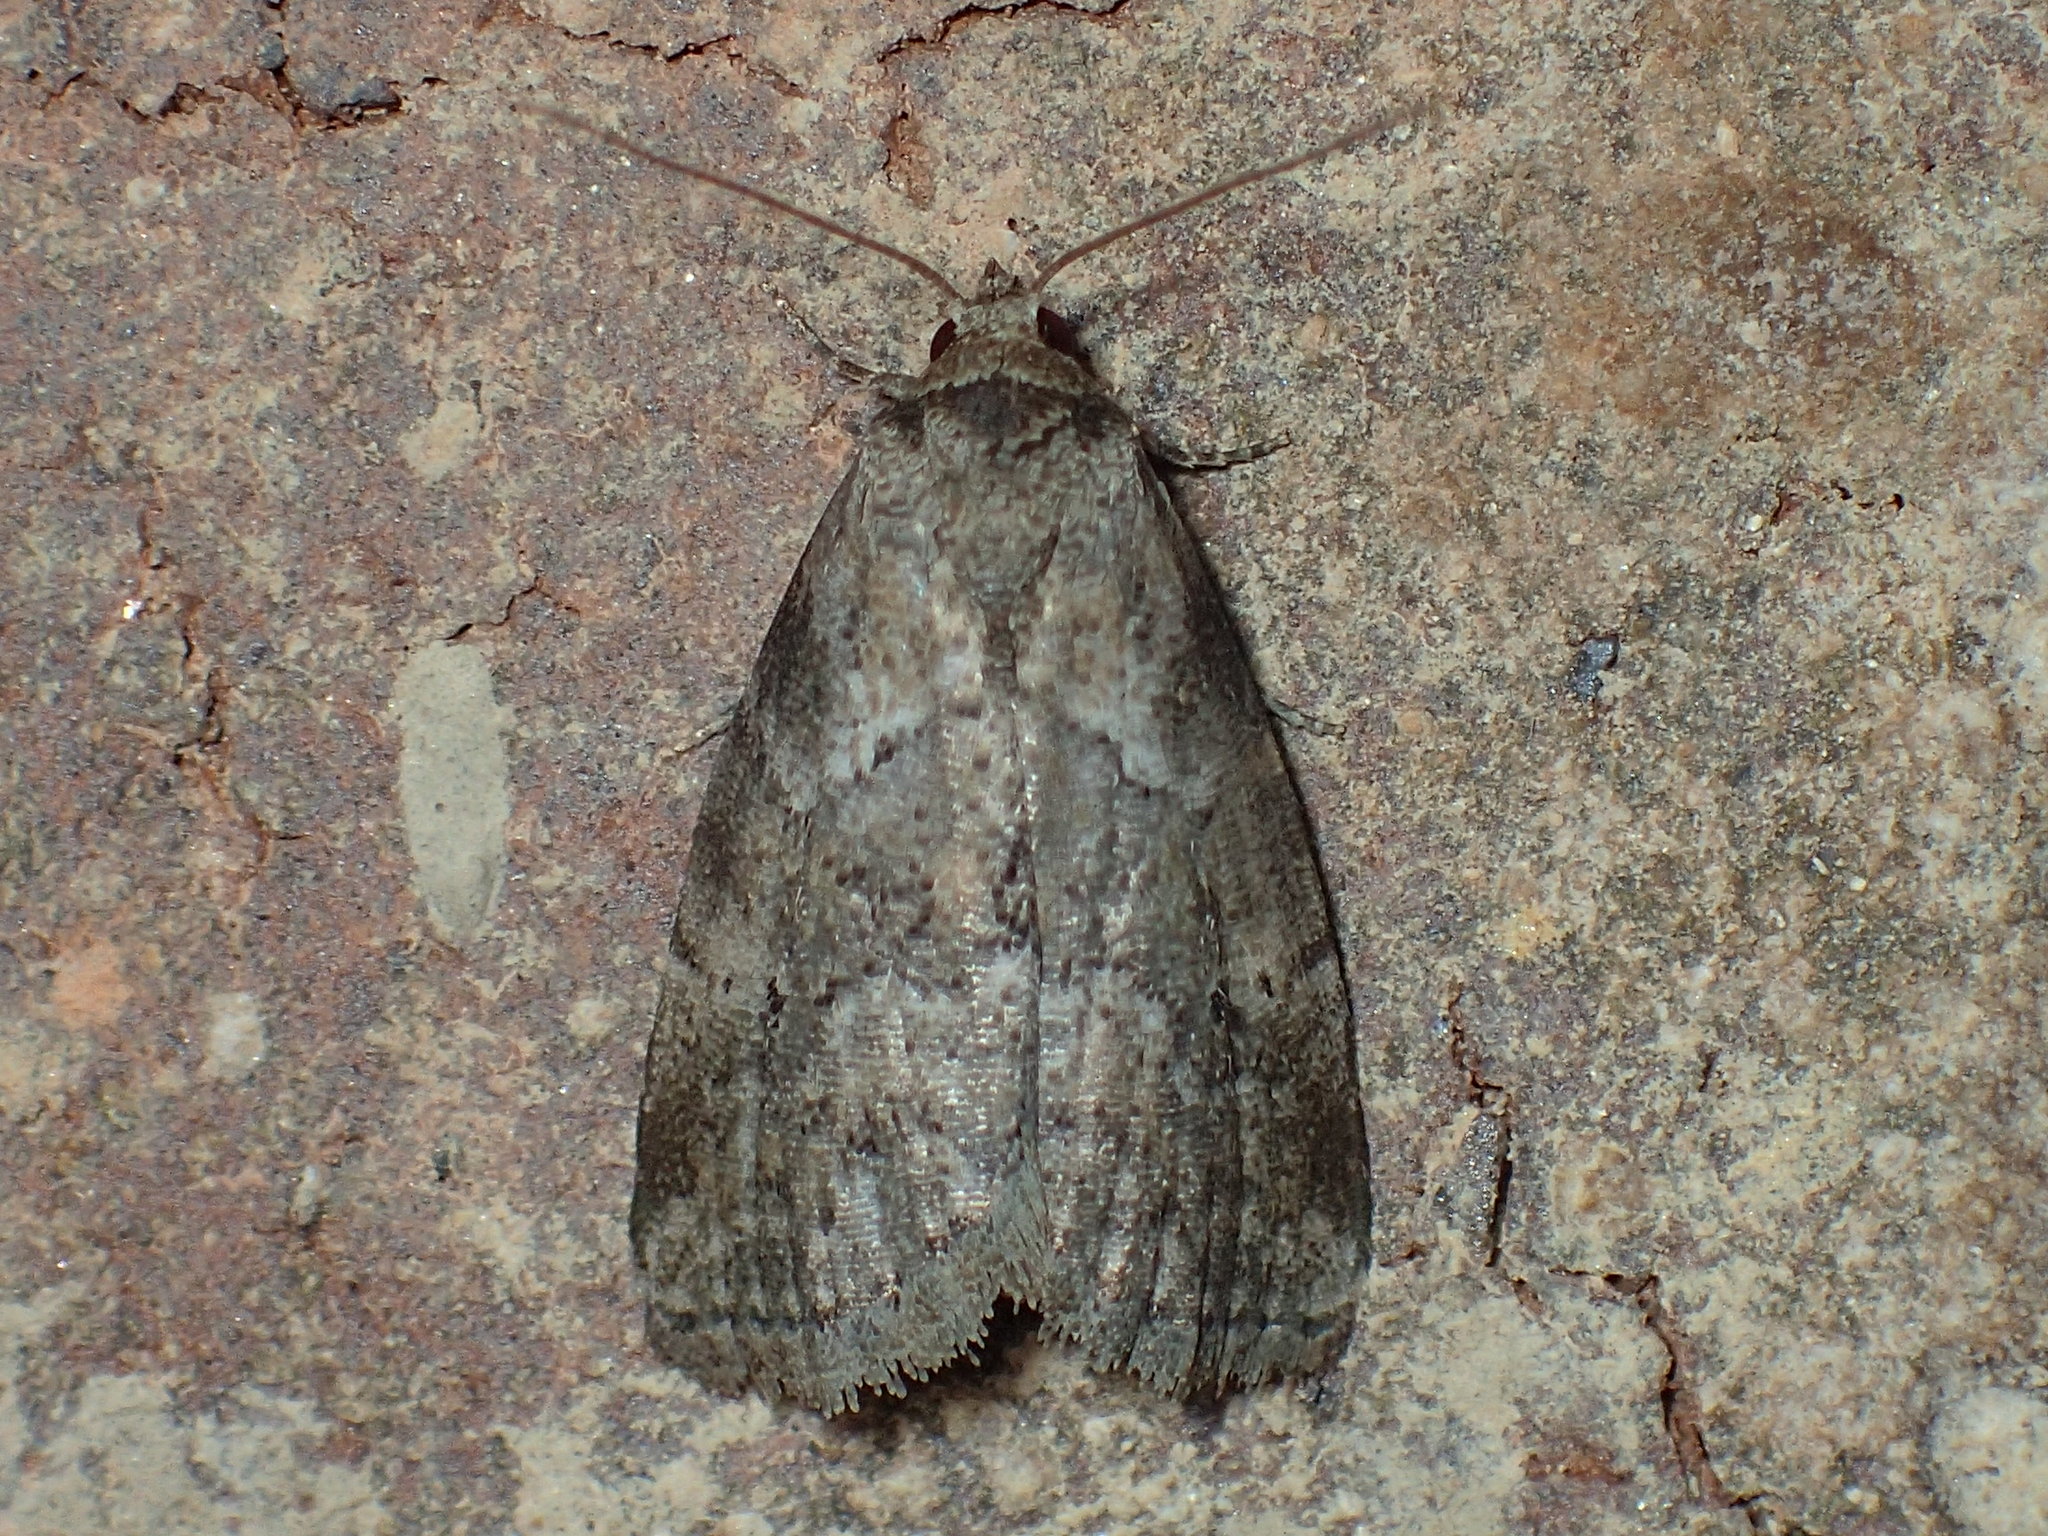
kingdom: Animalia
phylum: Arthropoda
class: Insecta
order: Lepidoptera
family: Erebidae
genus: Hyperstrotia
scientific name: Hyperstrotia nana
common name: White-lined graylet
